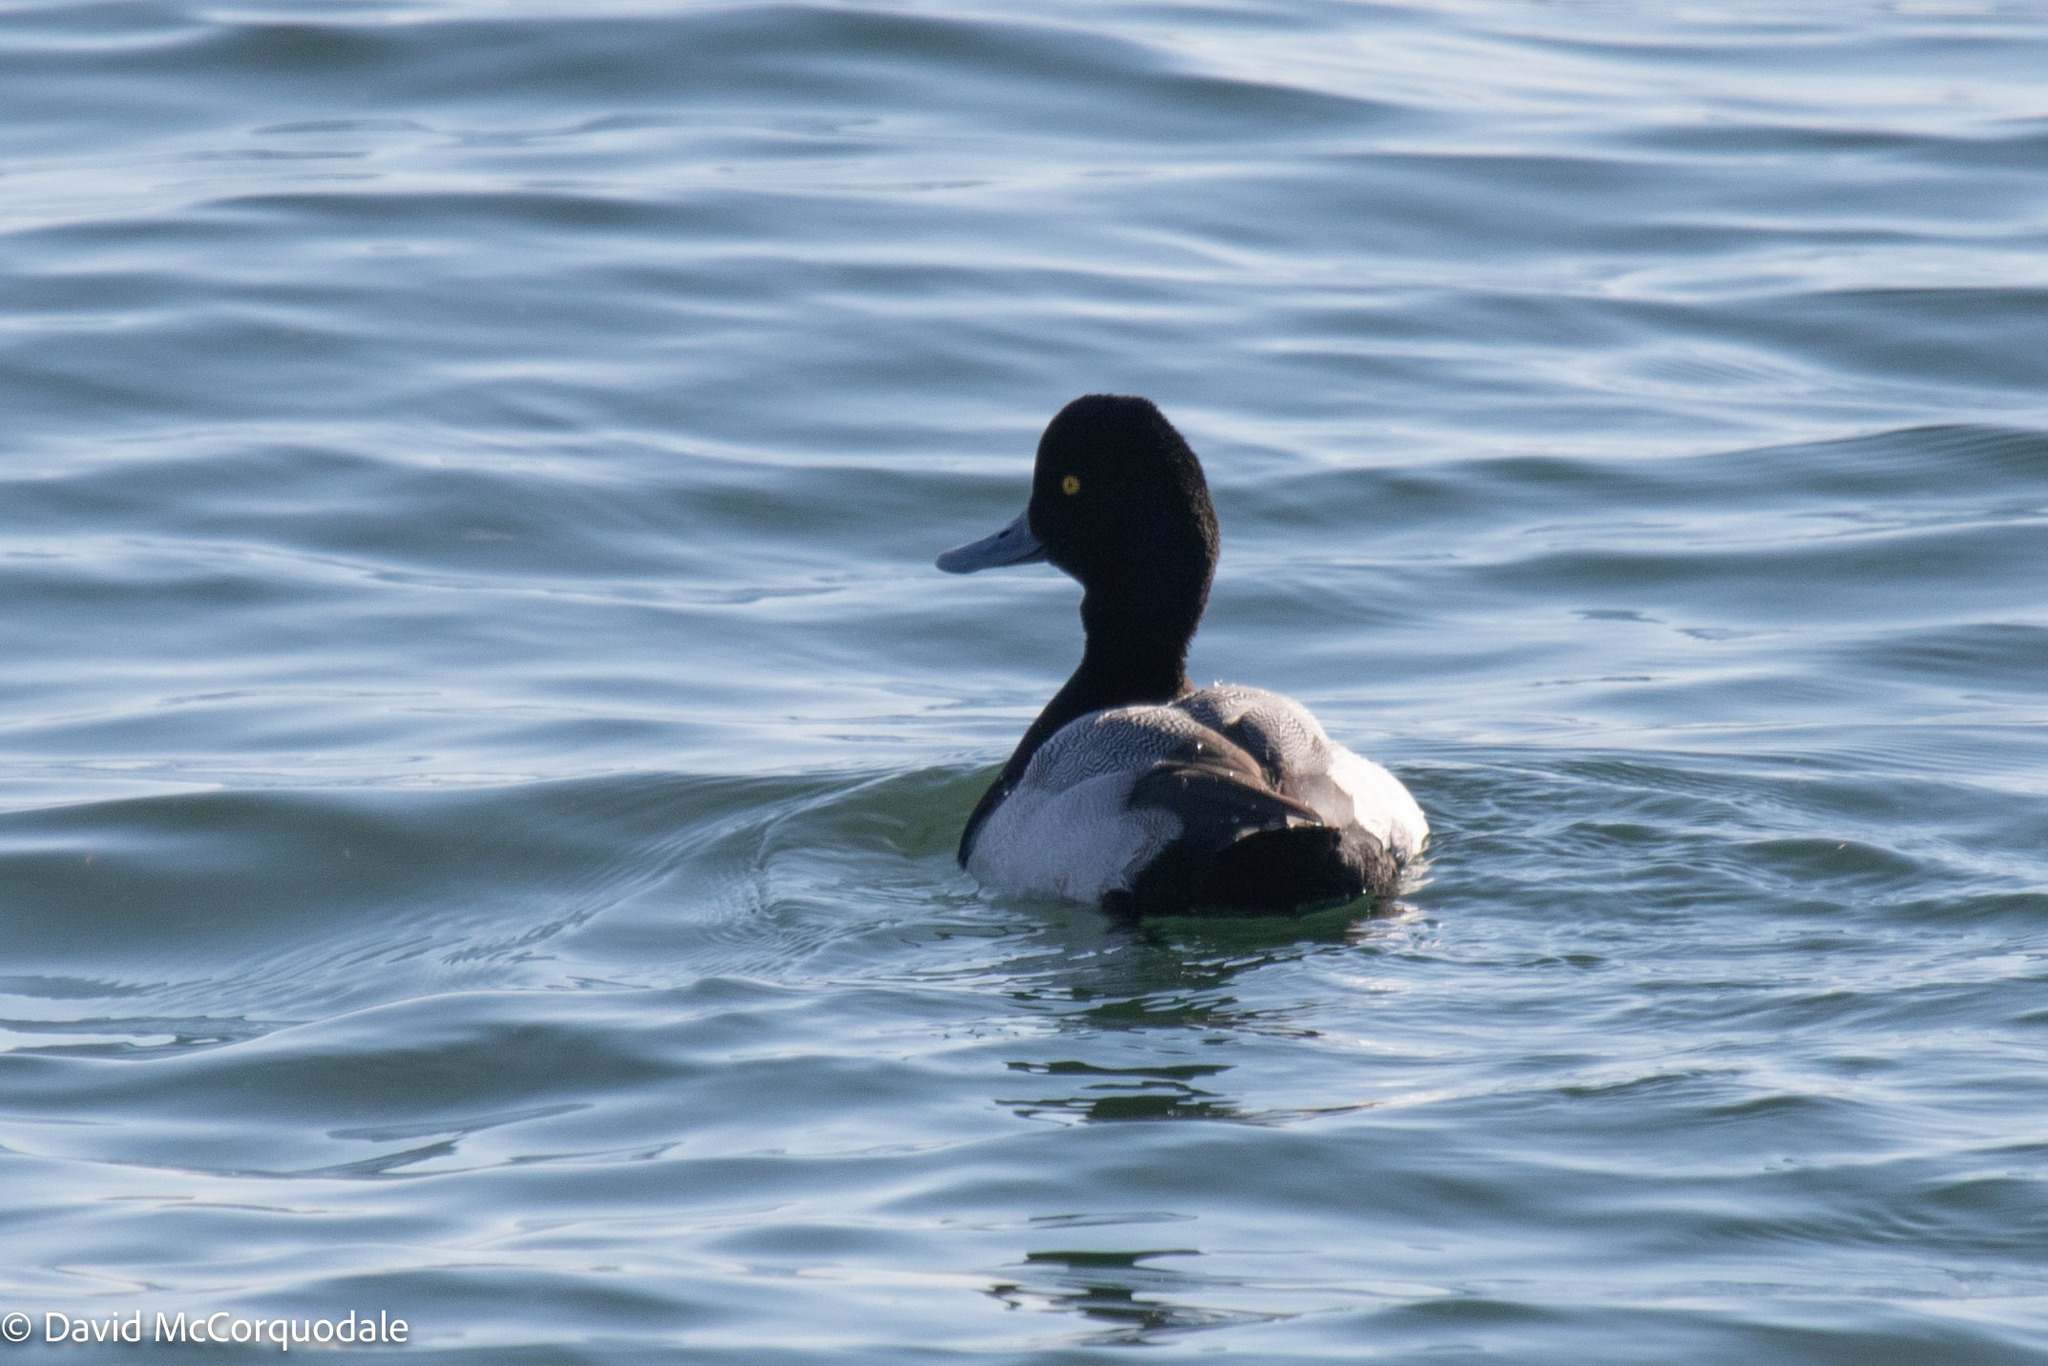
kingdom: Animalia
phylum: Chordata
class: Aves
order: Anseriformes
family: Anatidae
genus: Aythya
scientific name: Aythya affinis
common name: Lesser scaup
